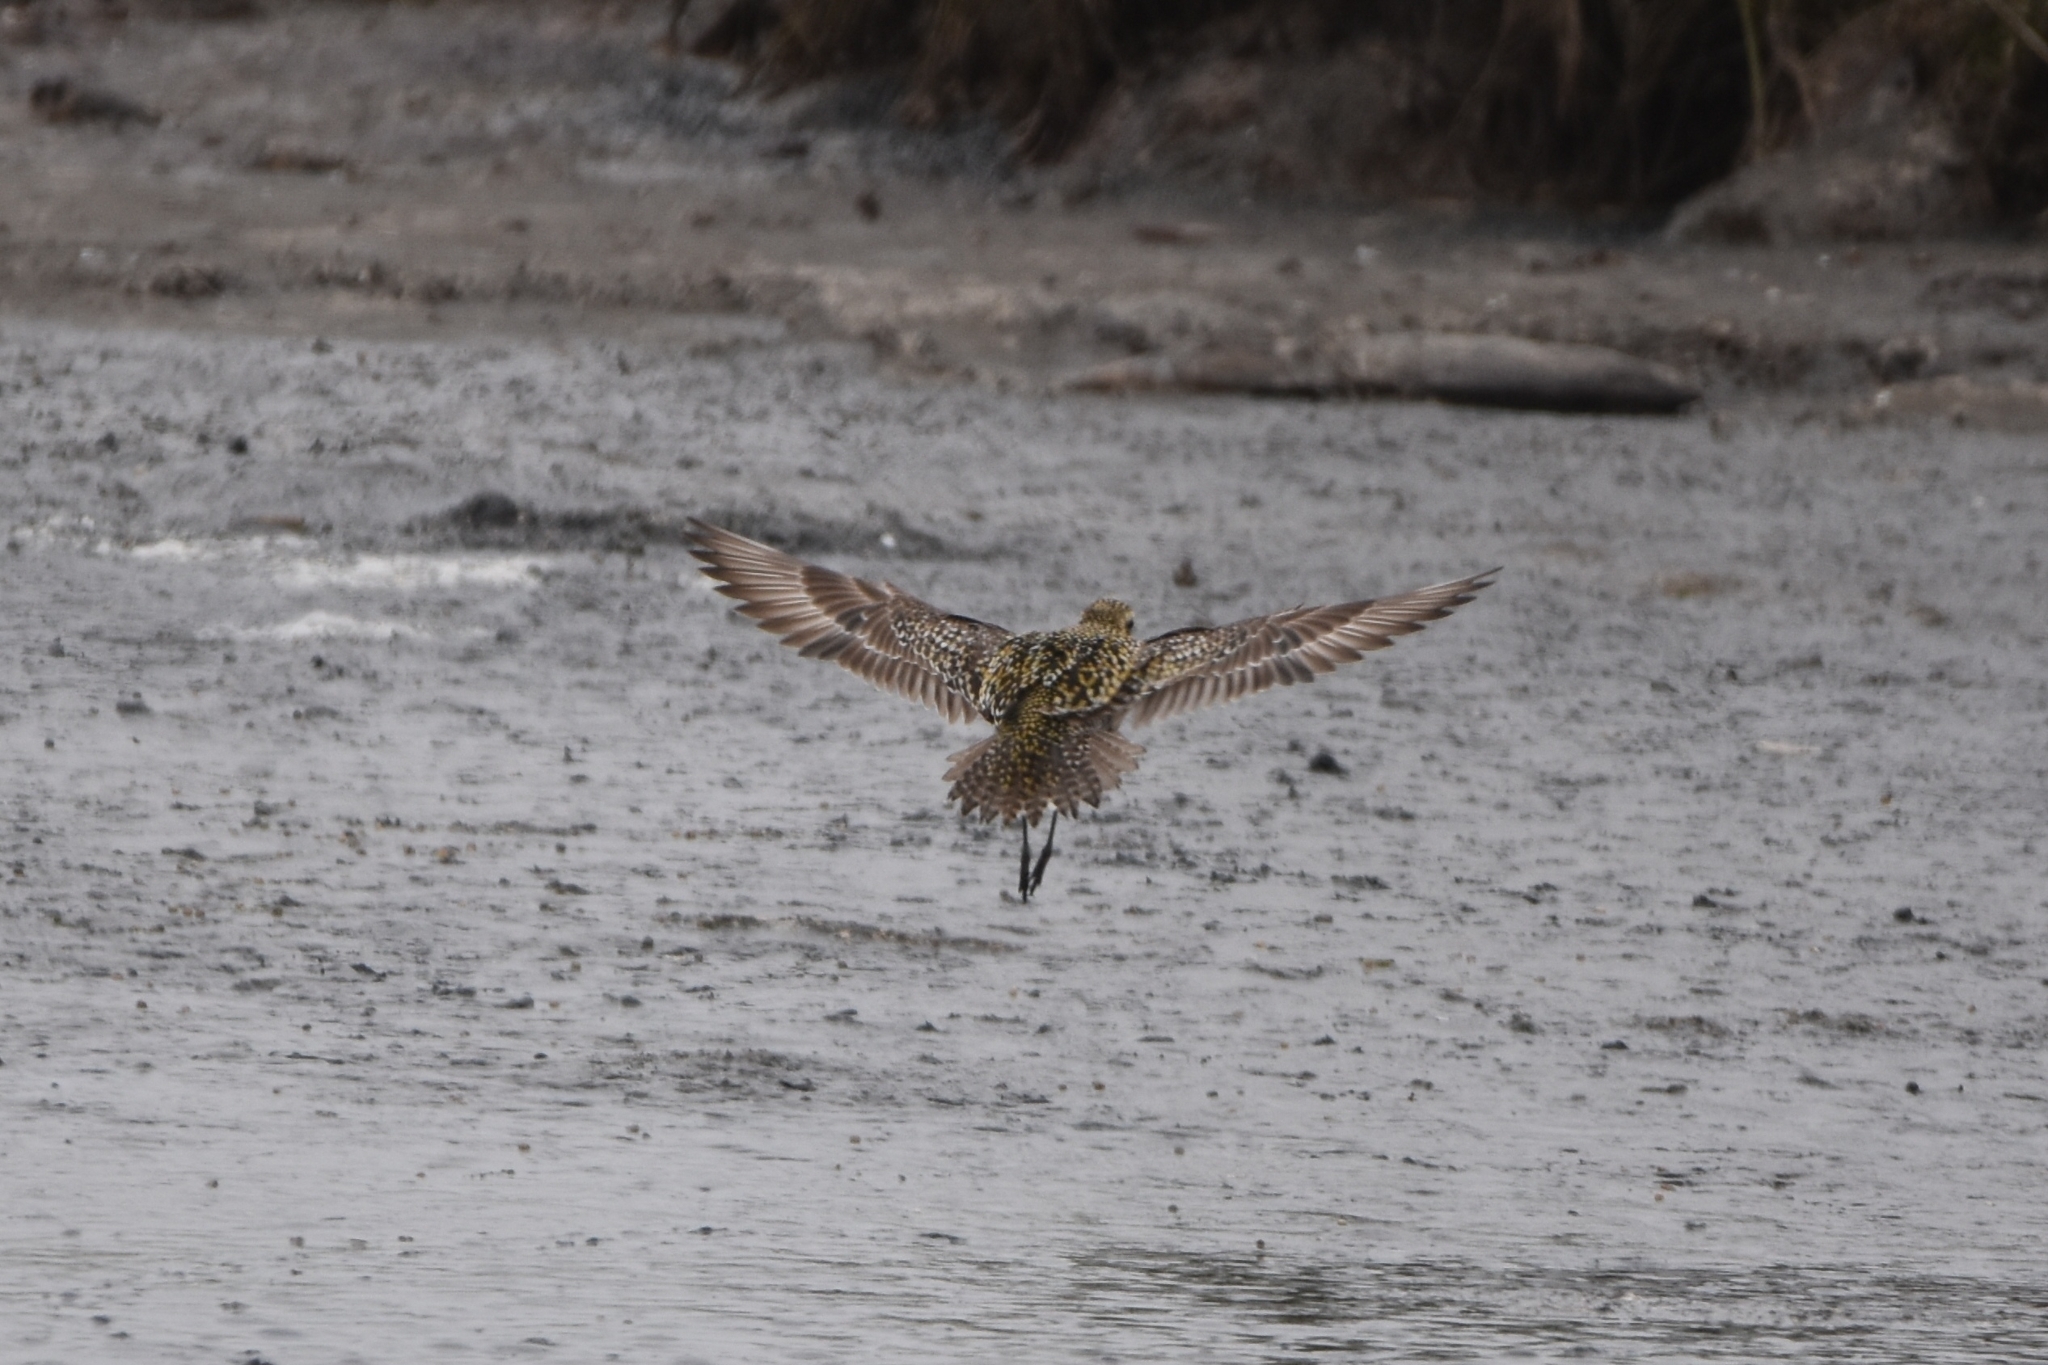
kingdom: Animalia
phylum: Chordata
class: Aves
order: Charadriiformes
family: Charadriidae
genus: Pluvialis
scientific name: Pluvialis fulva
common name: Pacific golden plover
